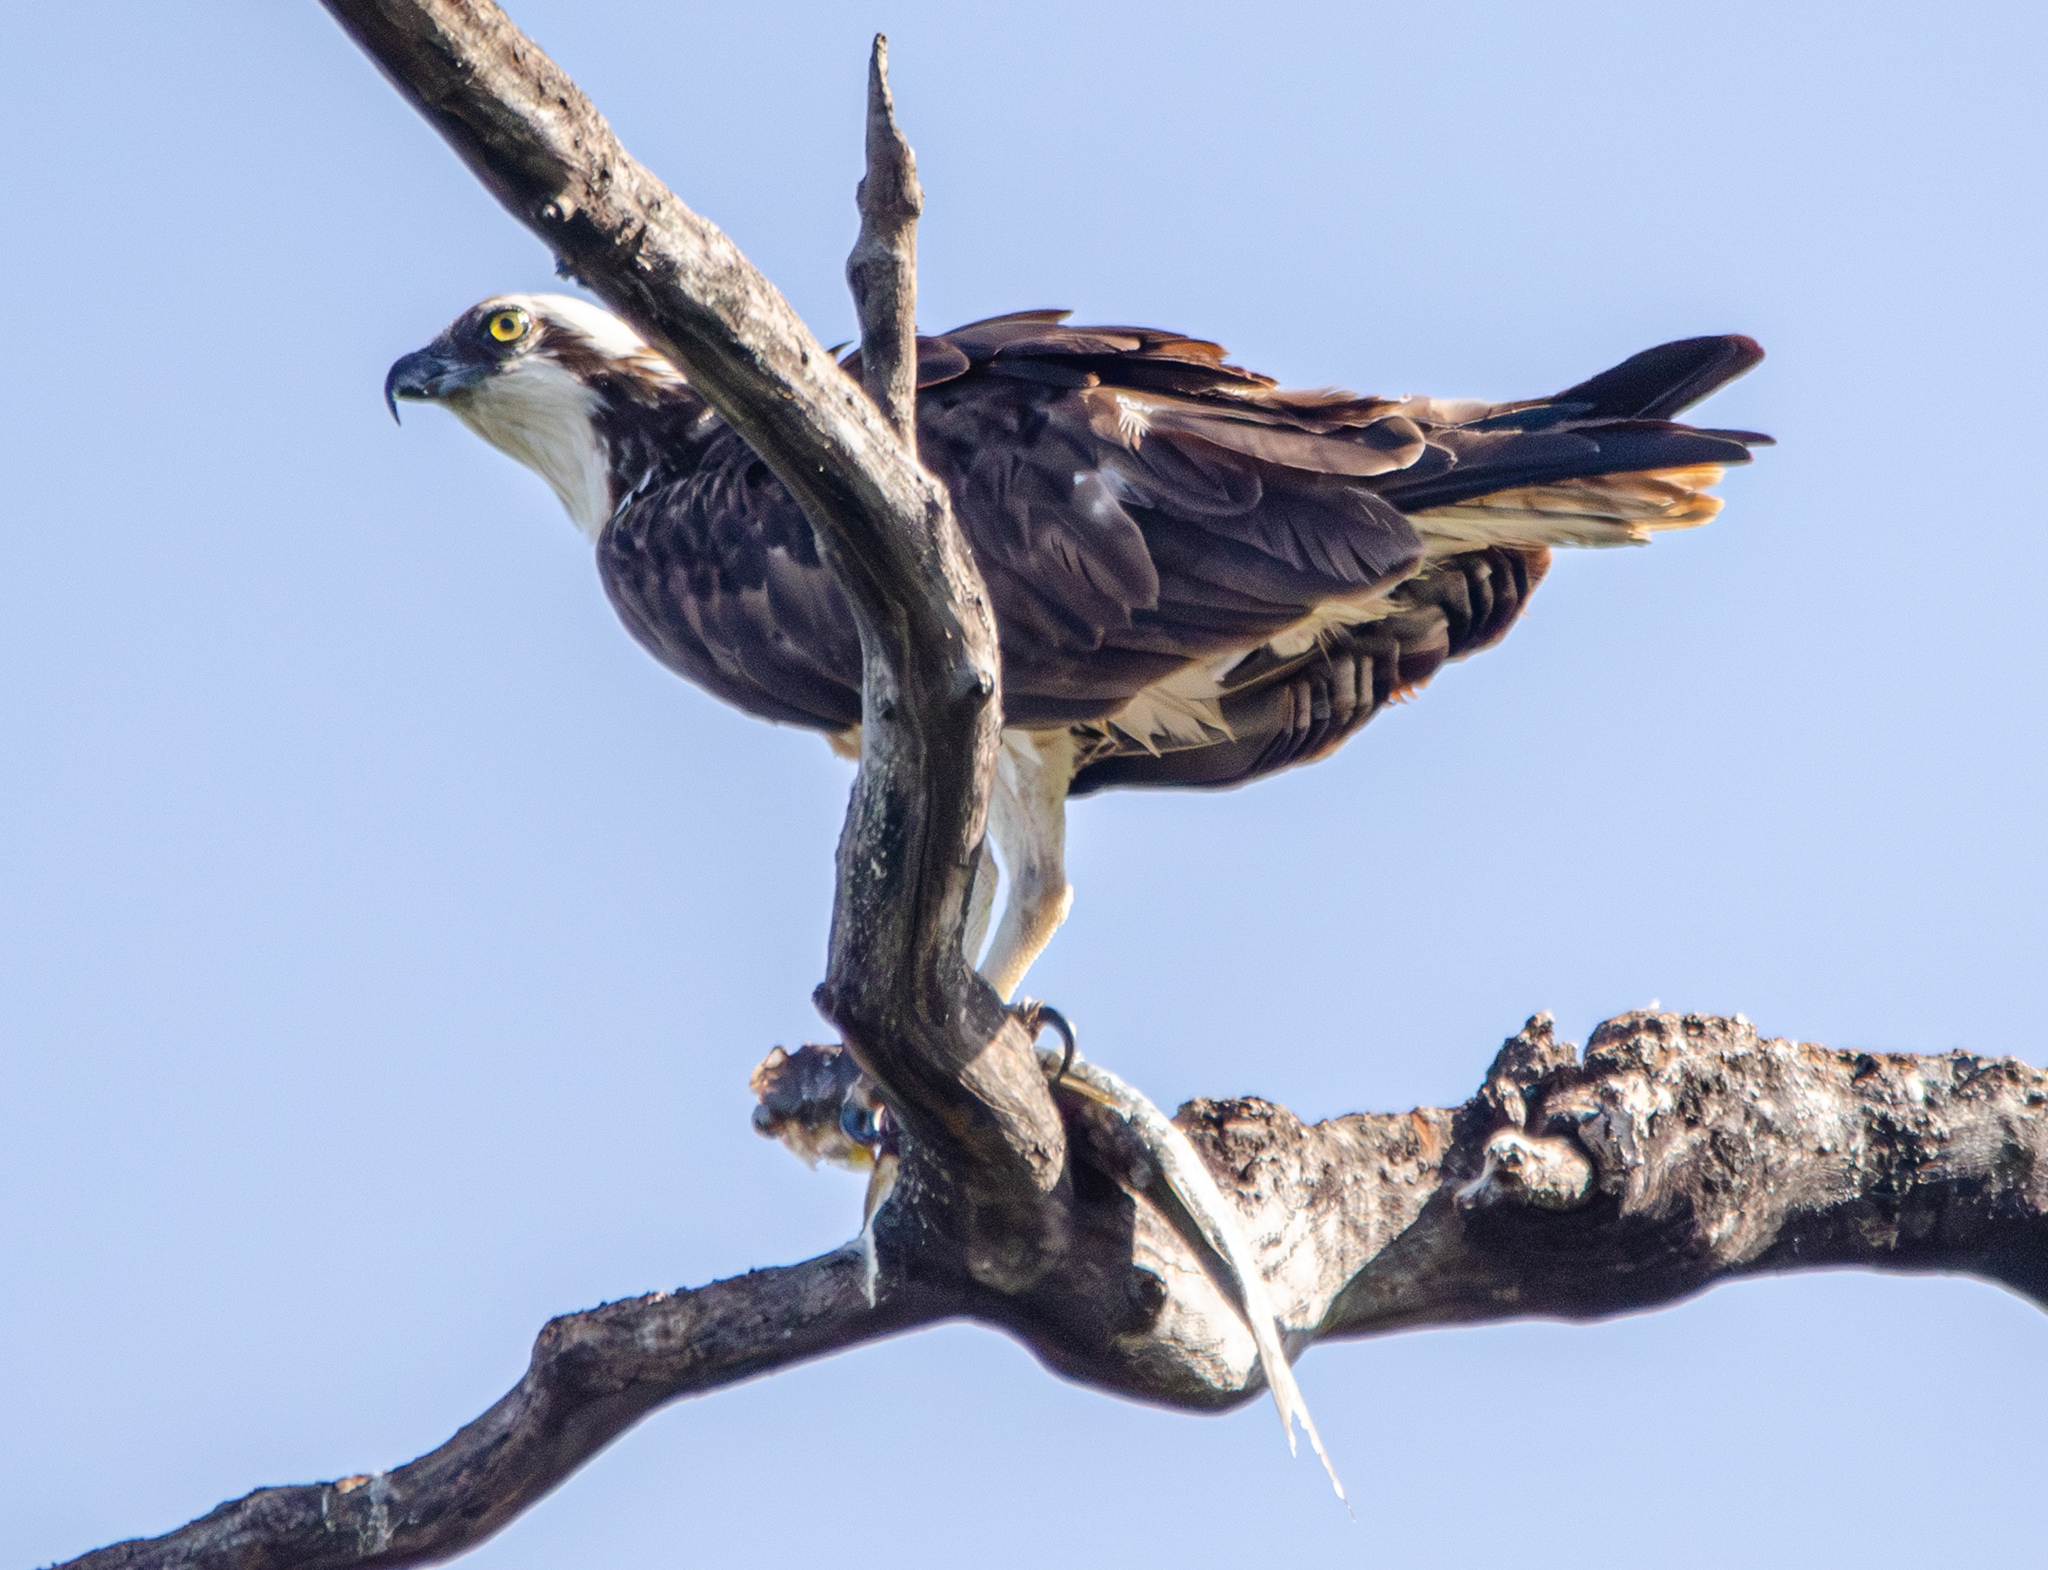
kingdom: Animalia
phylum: Chordata
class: Aves
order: Accipitriformes
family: Pandionidae
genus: Pandion
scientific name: Pandion haliaetus
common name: Osprey
